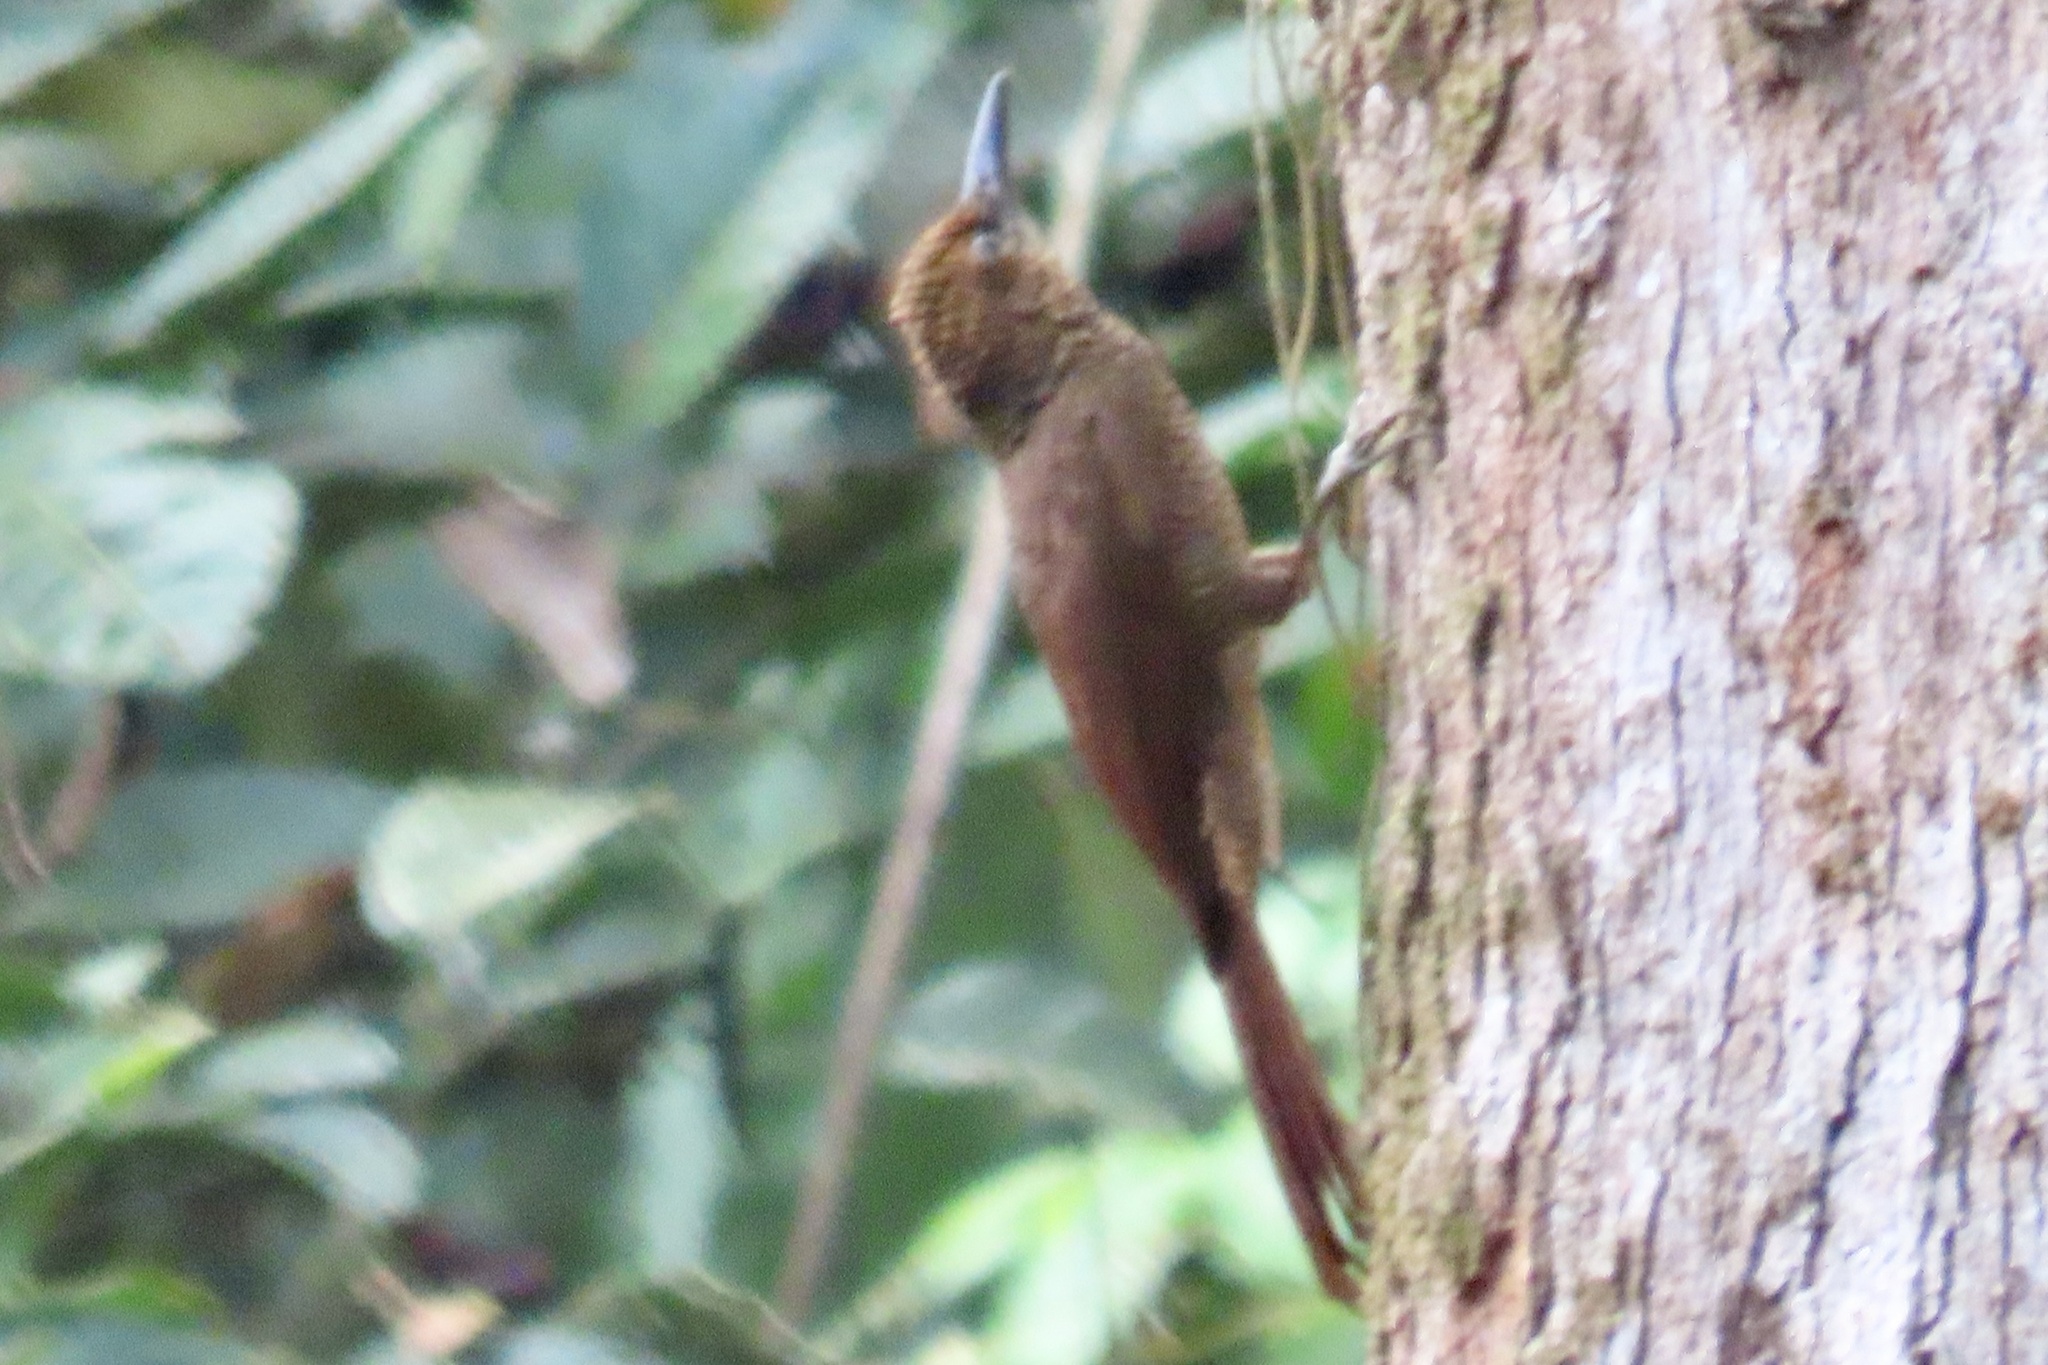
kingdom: Animalia
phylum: Chordata
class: Aves
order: Passeriformes
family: Furnariidae
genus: Dendrocolaptes
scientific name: Dendrocolaptes sanctithomae
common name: Northern barred-woodcreeper
